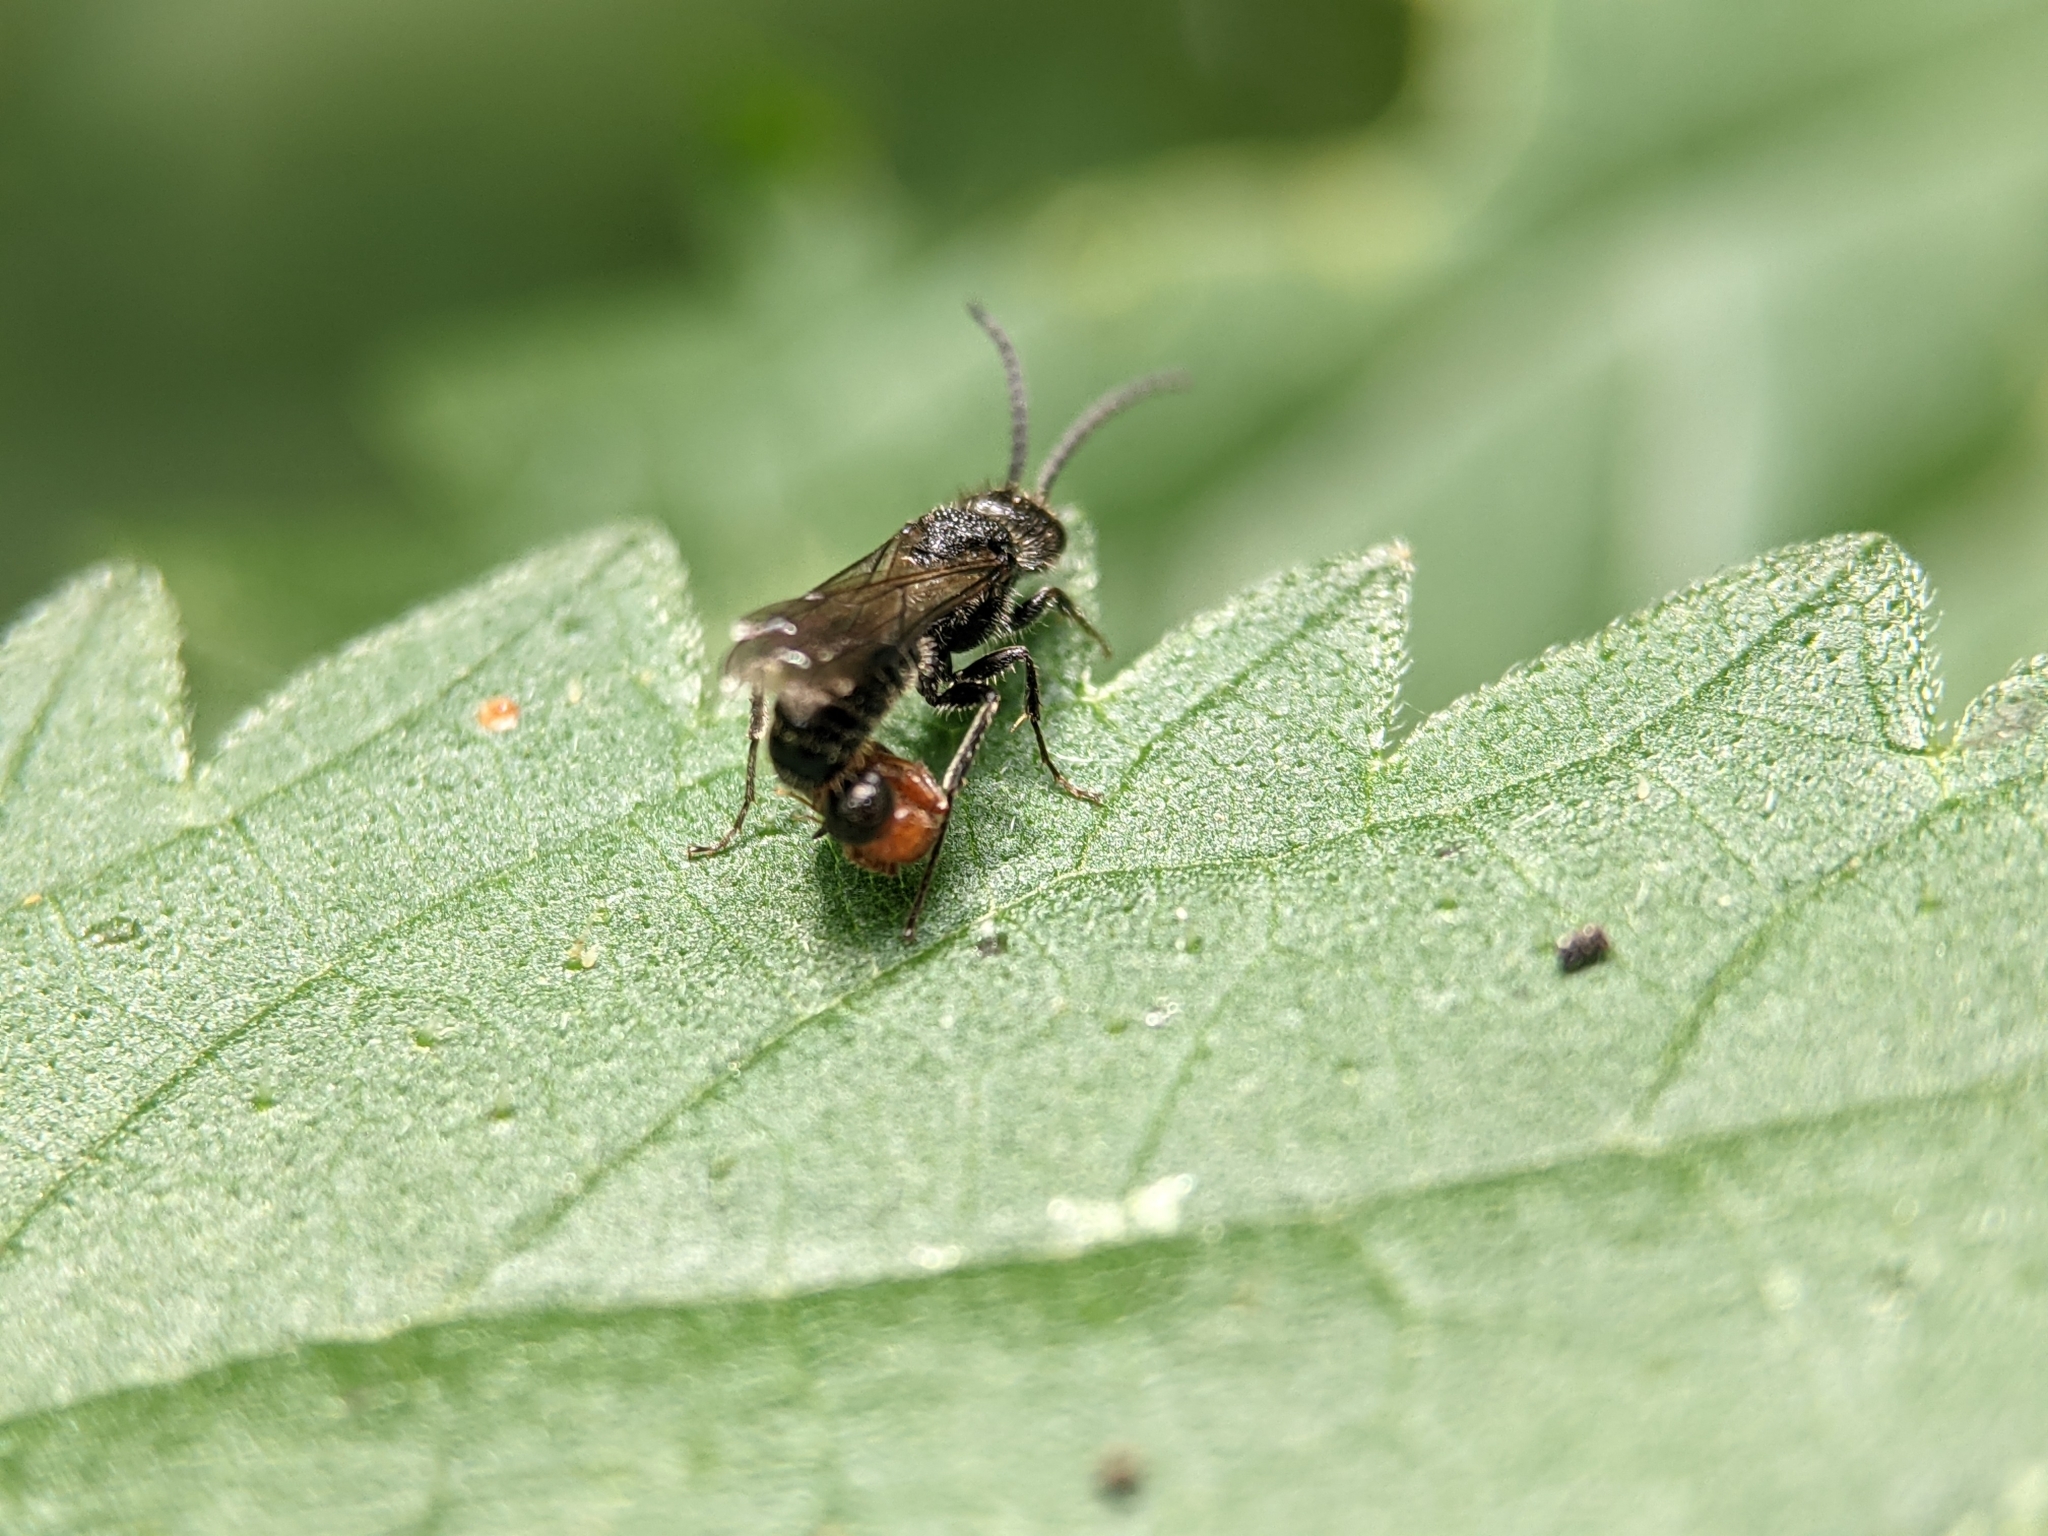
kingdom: Animalia
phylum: Arthropoda
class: Insecta
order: Hymenoptera
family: Mutillidae
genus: Myrmosa
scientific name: Myrmosa atra
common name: Black headed velvet ant
